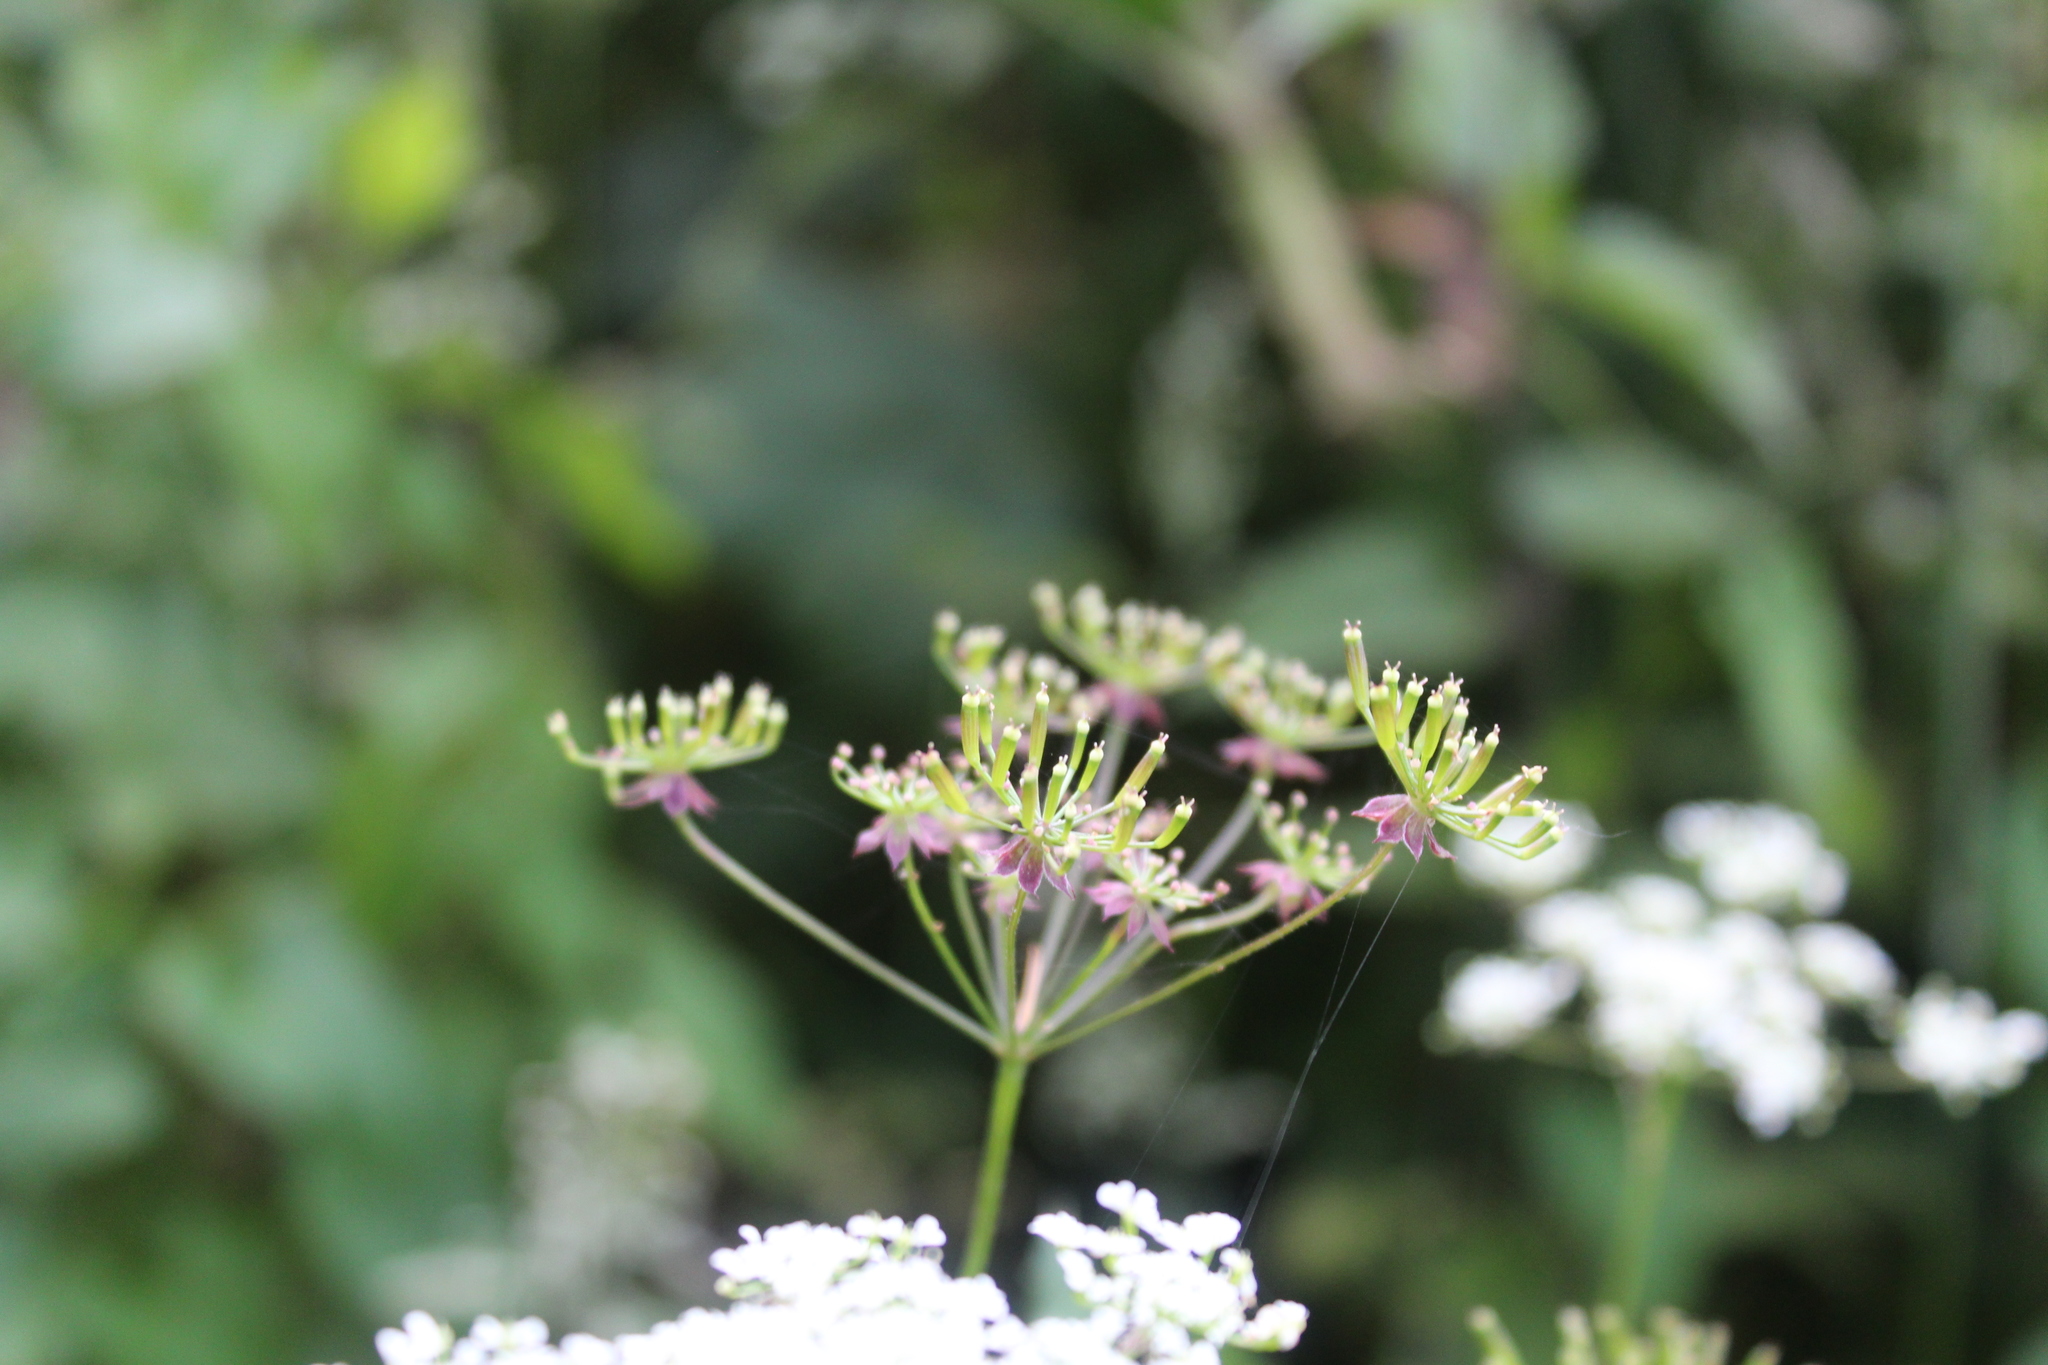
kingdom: Plantae
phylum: Tracheophyta
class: Magnoliopsida
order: Apiales
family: Apiaceae
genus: Chaerophyllum
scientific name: Chaerophyllum temulum
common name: Rough chervil
